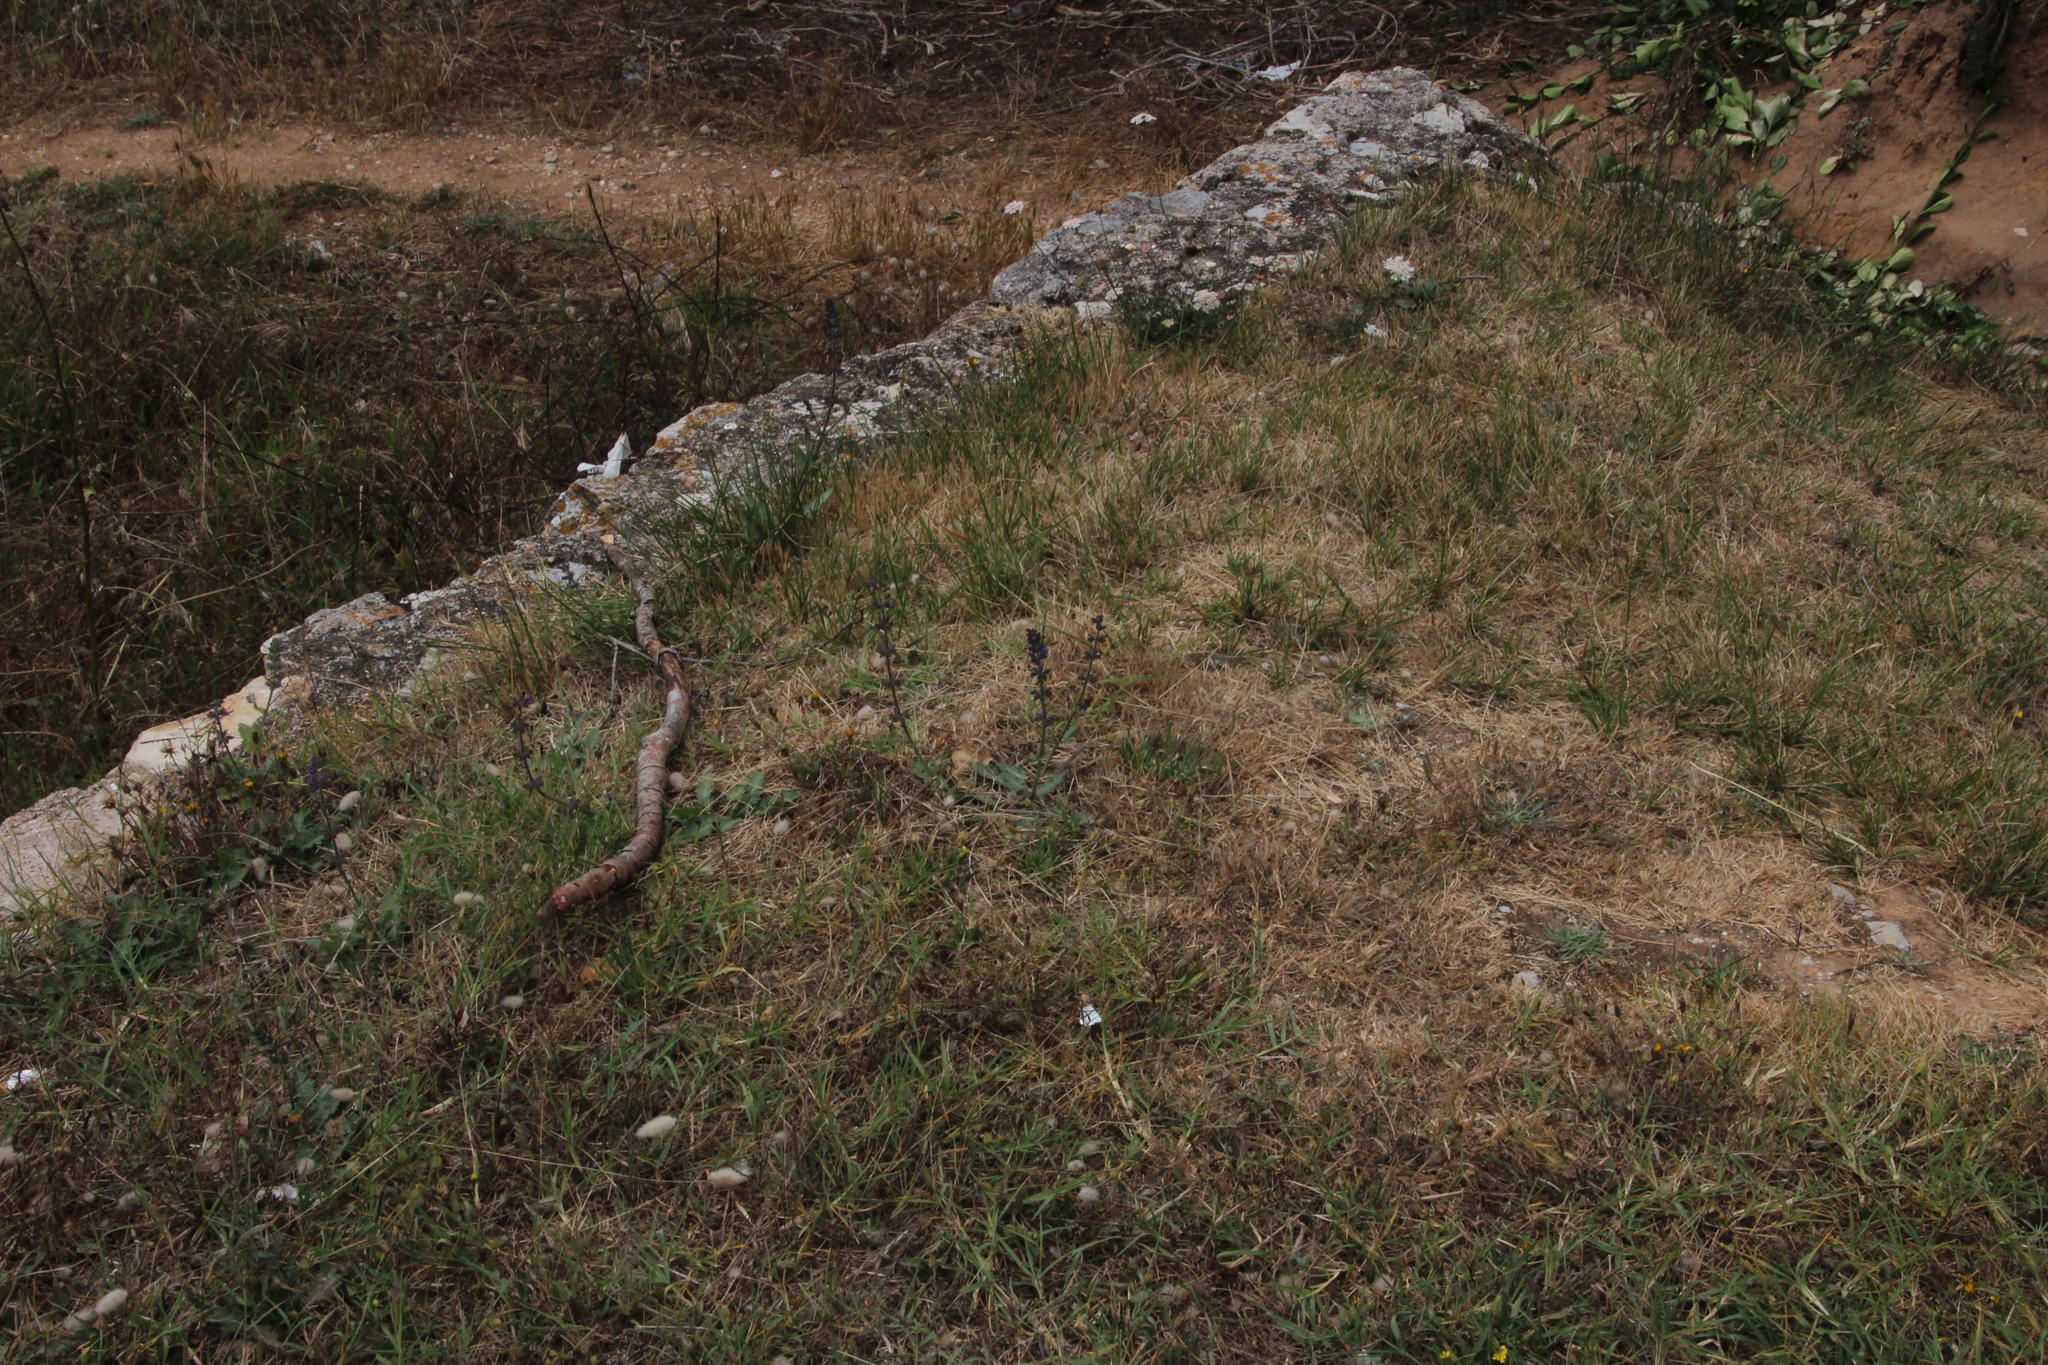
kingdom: Plantae
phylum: Tracheophyta
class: Magnoliopsida
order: Lamiales
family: Lamiaceae
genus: Salvia
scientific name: Salvia verbenaca
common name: Wild clary
